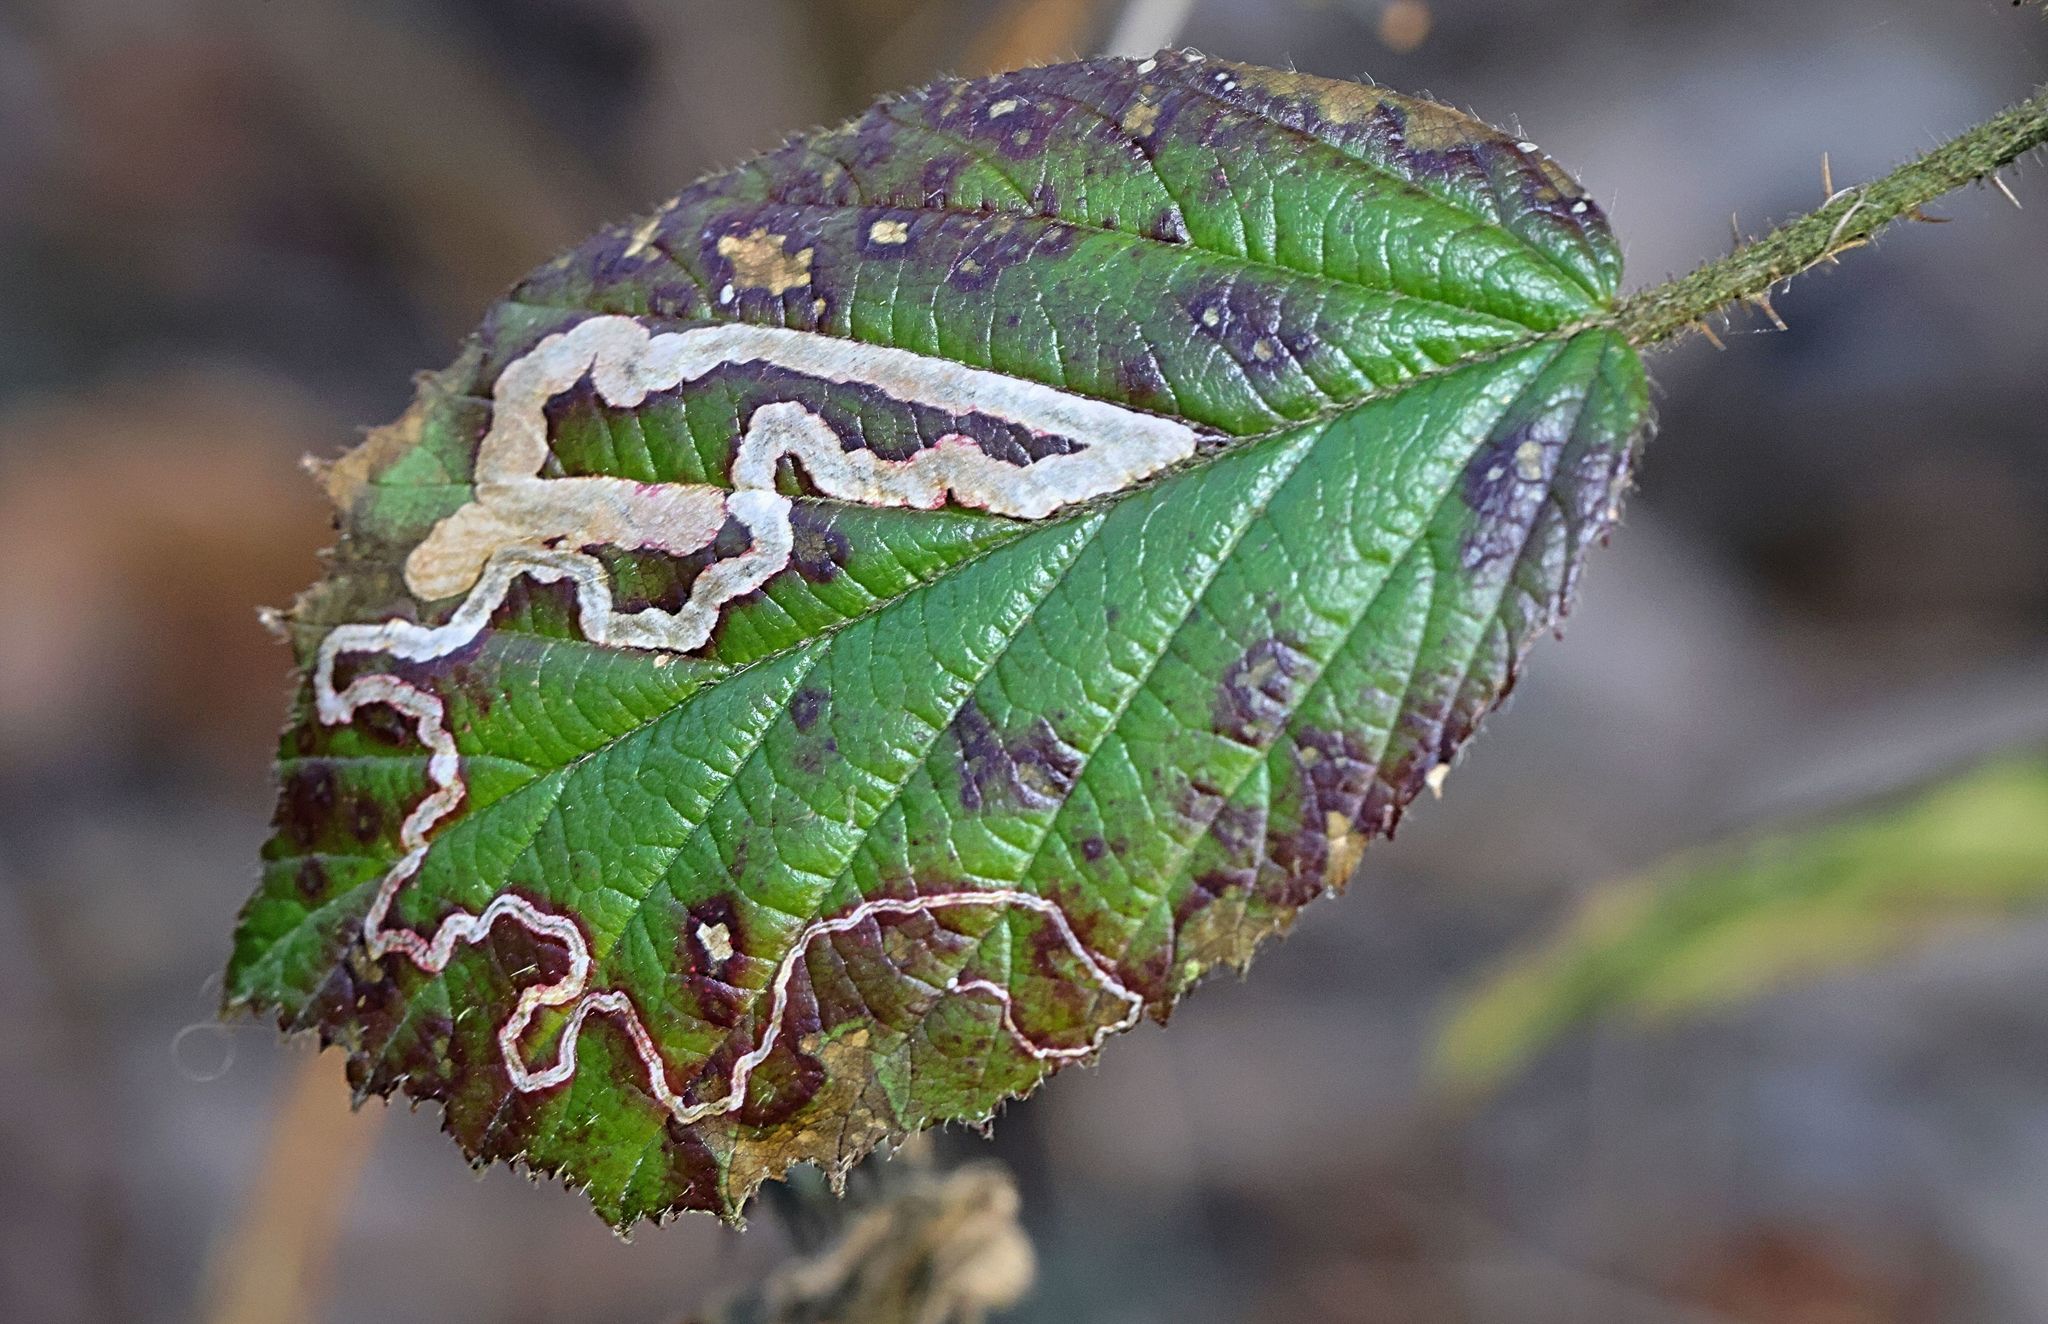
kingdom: Animalia
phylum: Arthropoda
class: Insecta
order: Lepidoptera
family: Nepticulidae
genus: Stigmella
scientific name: Stigmella aurella
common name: Golden pigmy
